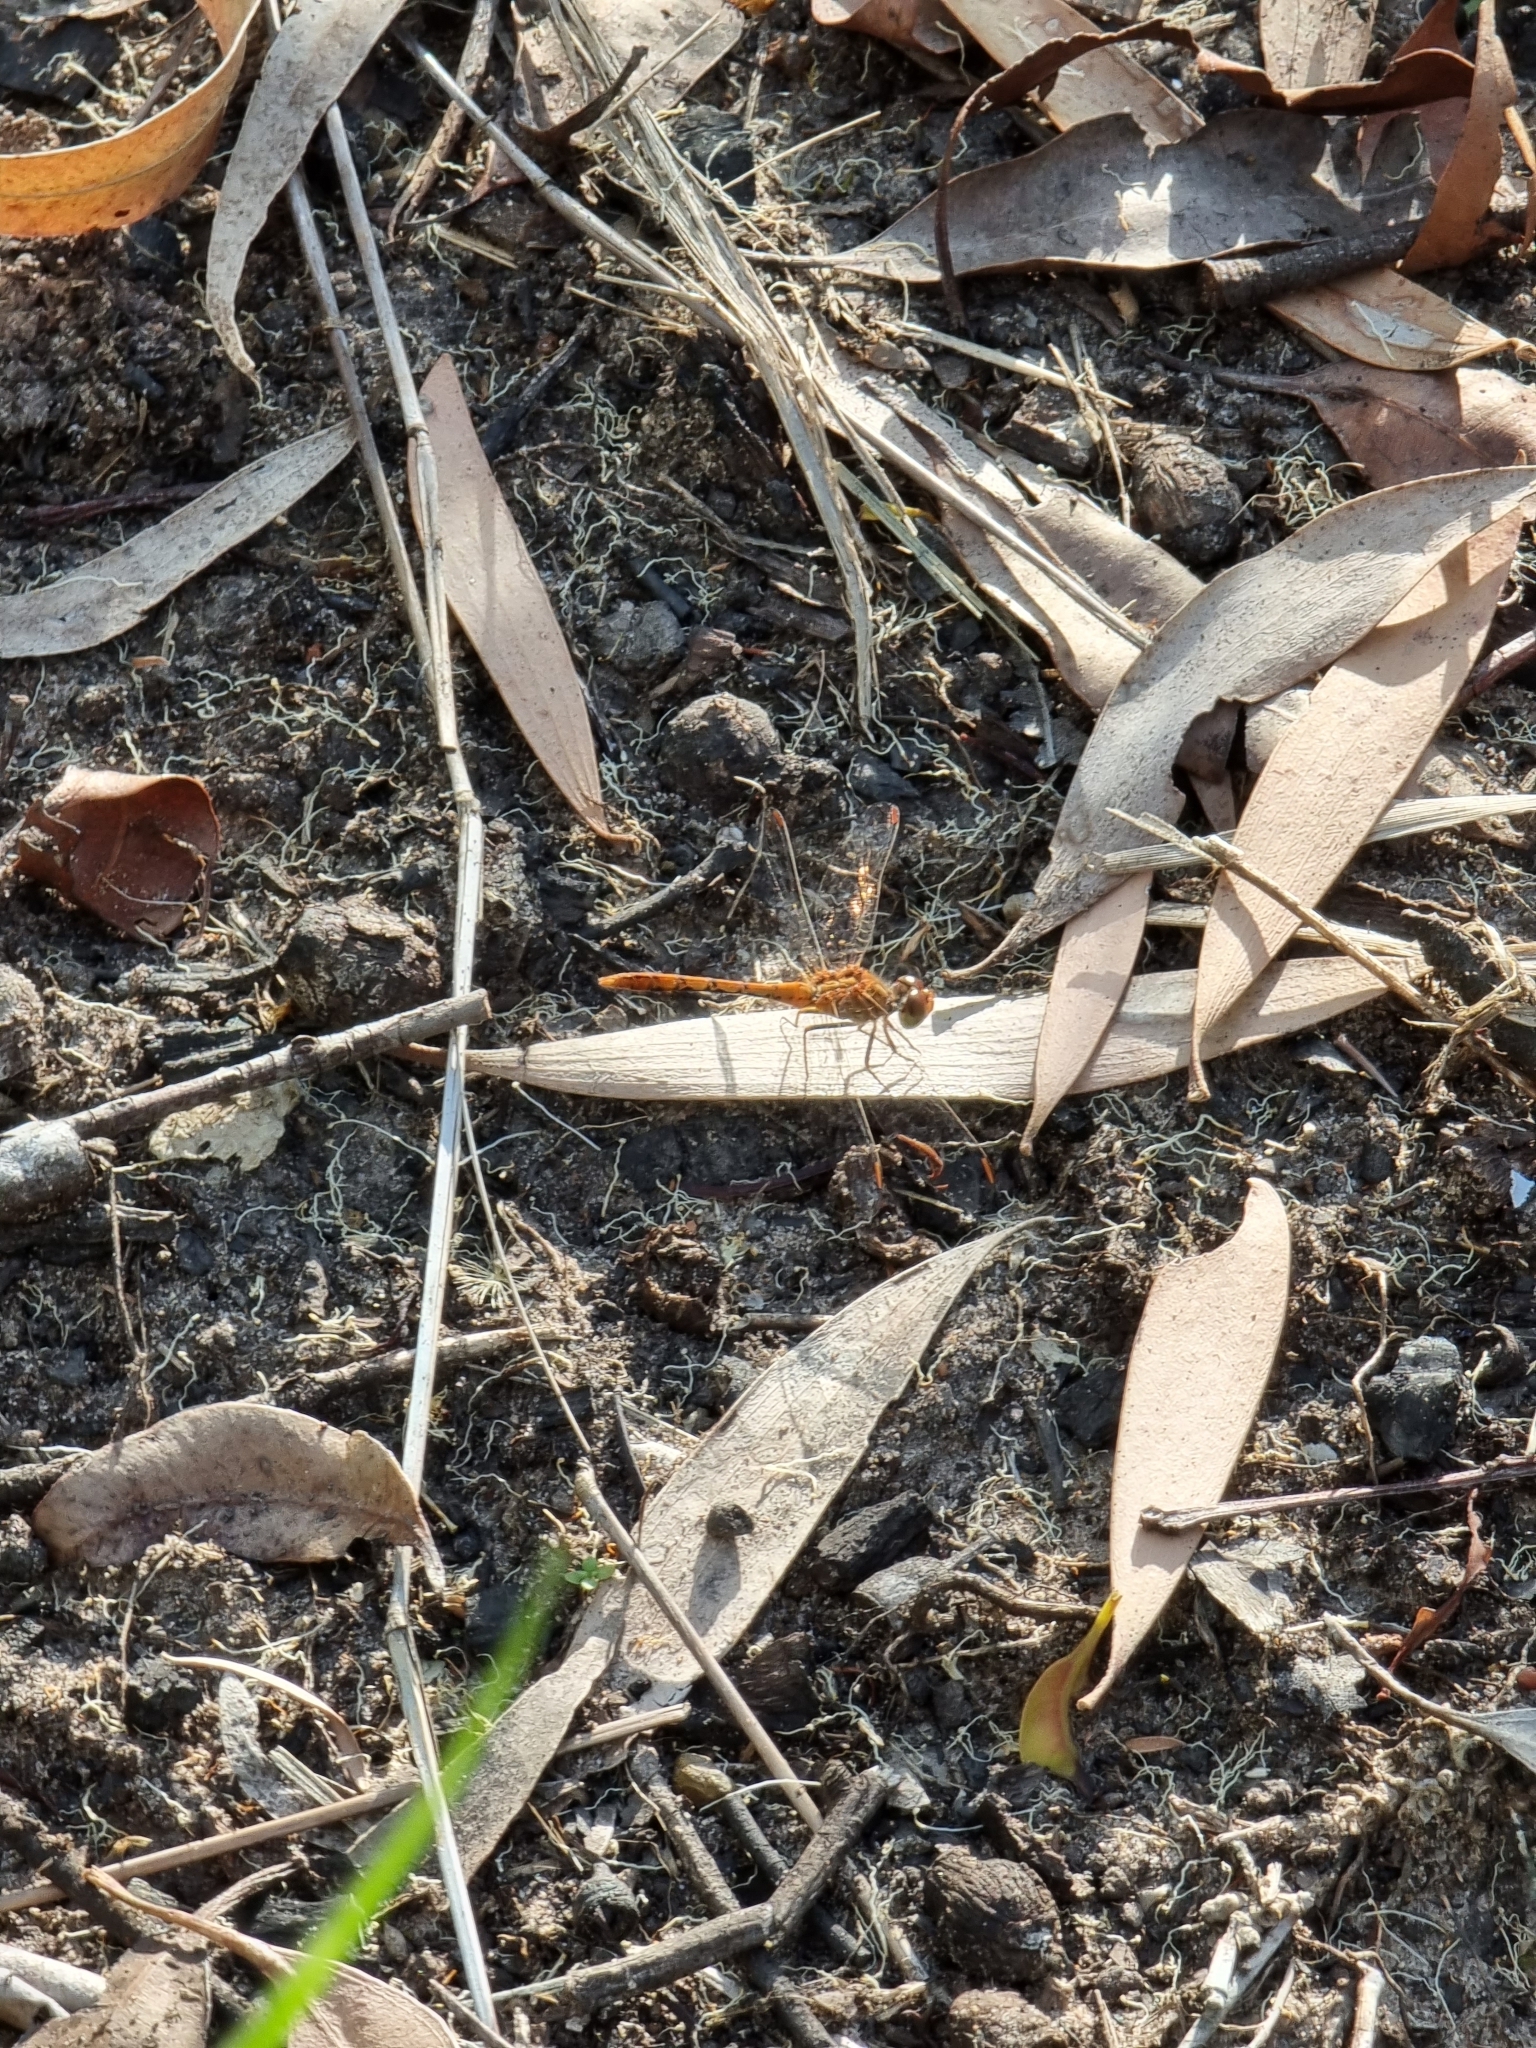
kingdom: Animalia
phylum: Arthropoda
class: Insecta
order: Odonata
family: Libellulidae
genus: Diplacodes
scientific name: Diplacodes bipunctata
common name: Red percher dragonfly
